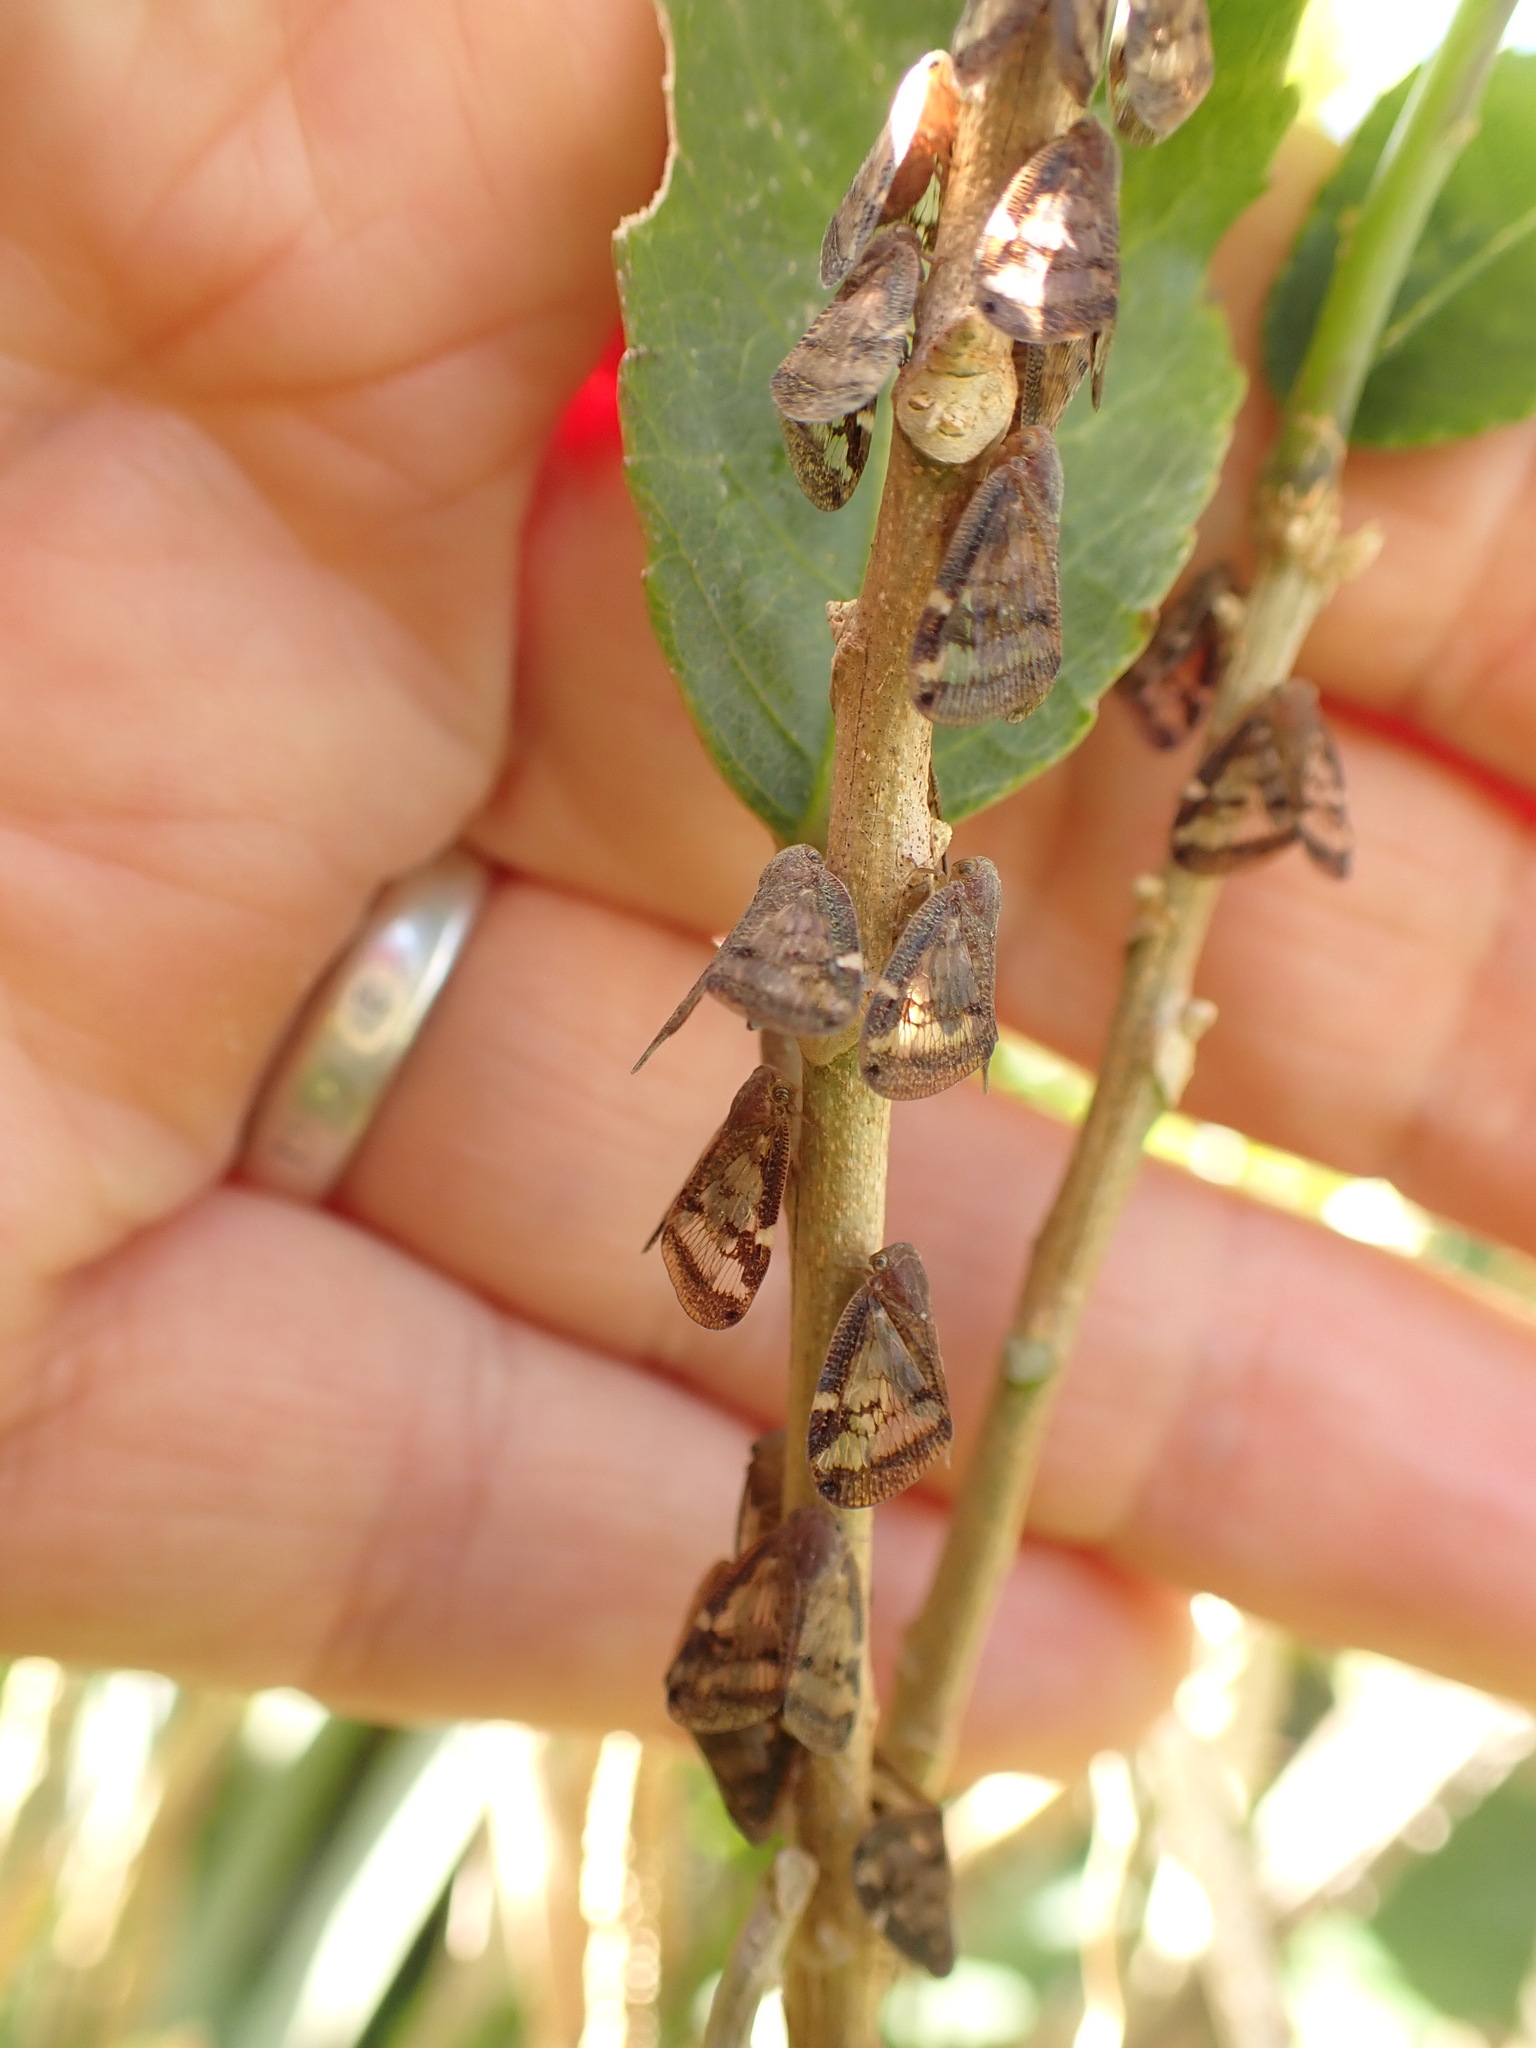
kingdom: Animalia
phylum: Arthropoda
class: Insecta
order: Hemiptera
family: Ricaniidae
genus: Scolypopa
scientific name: Scolypopa australis
